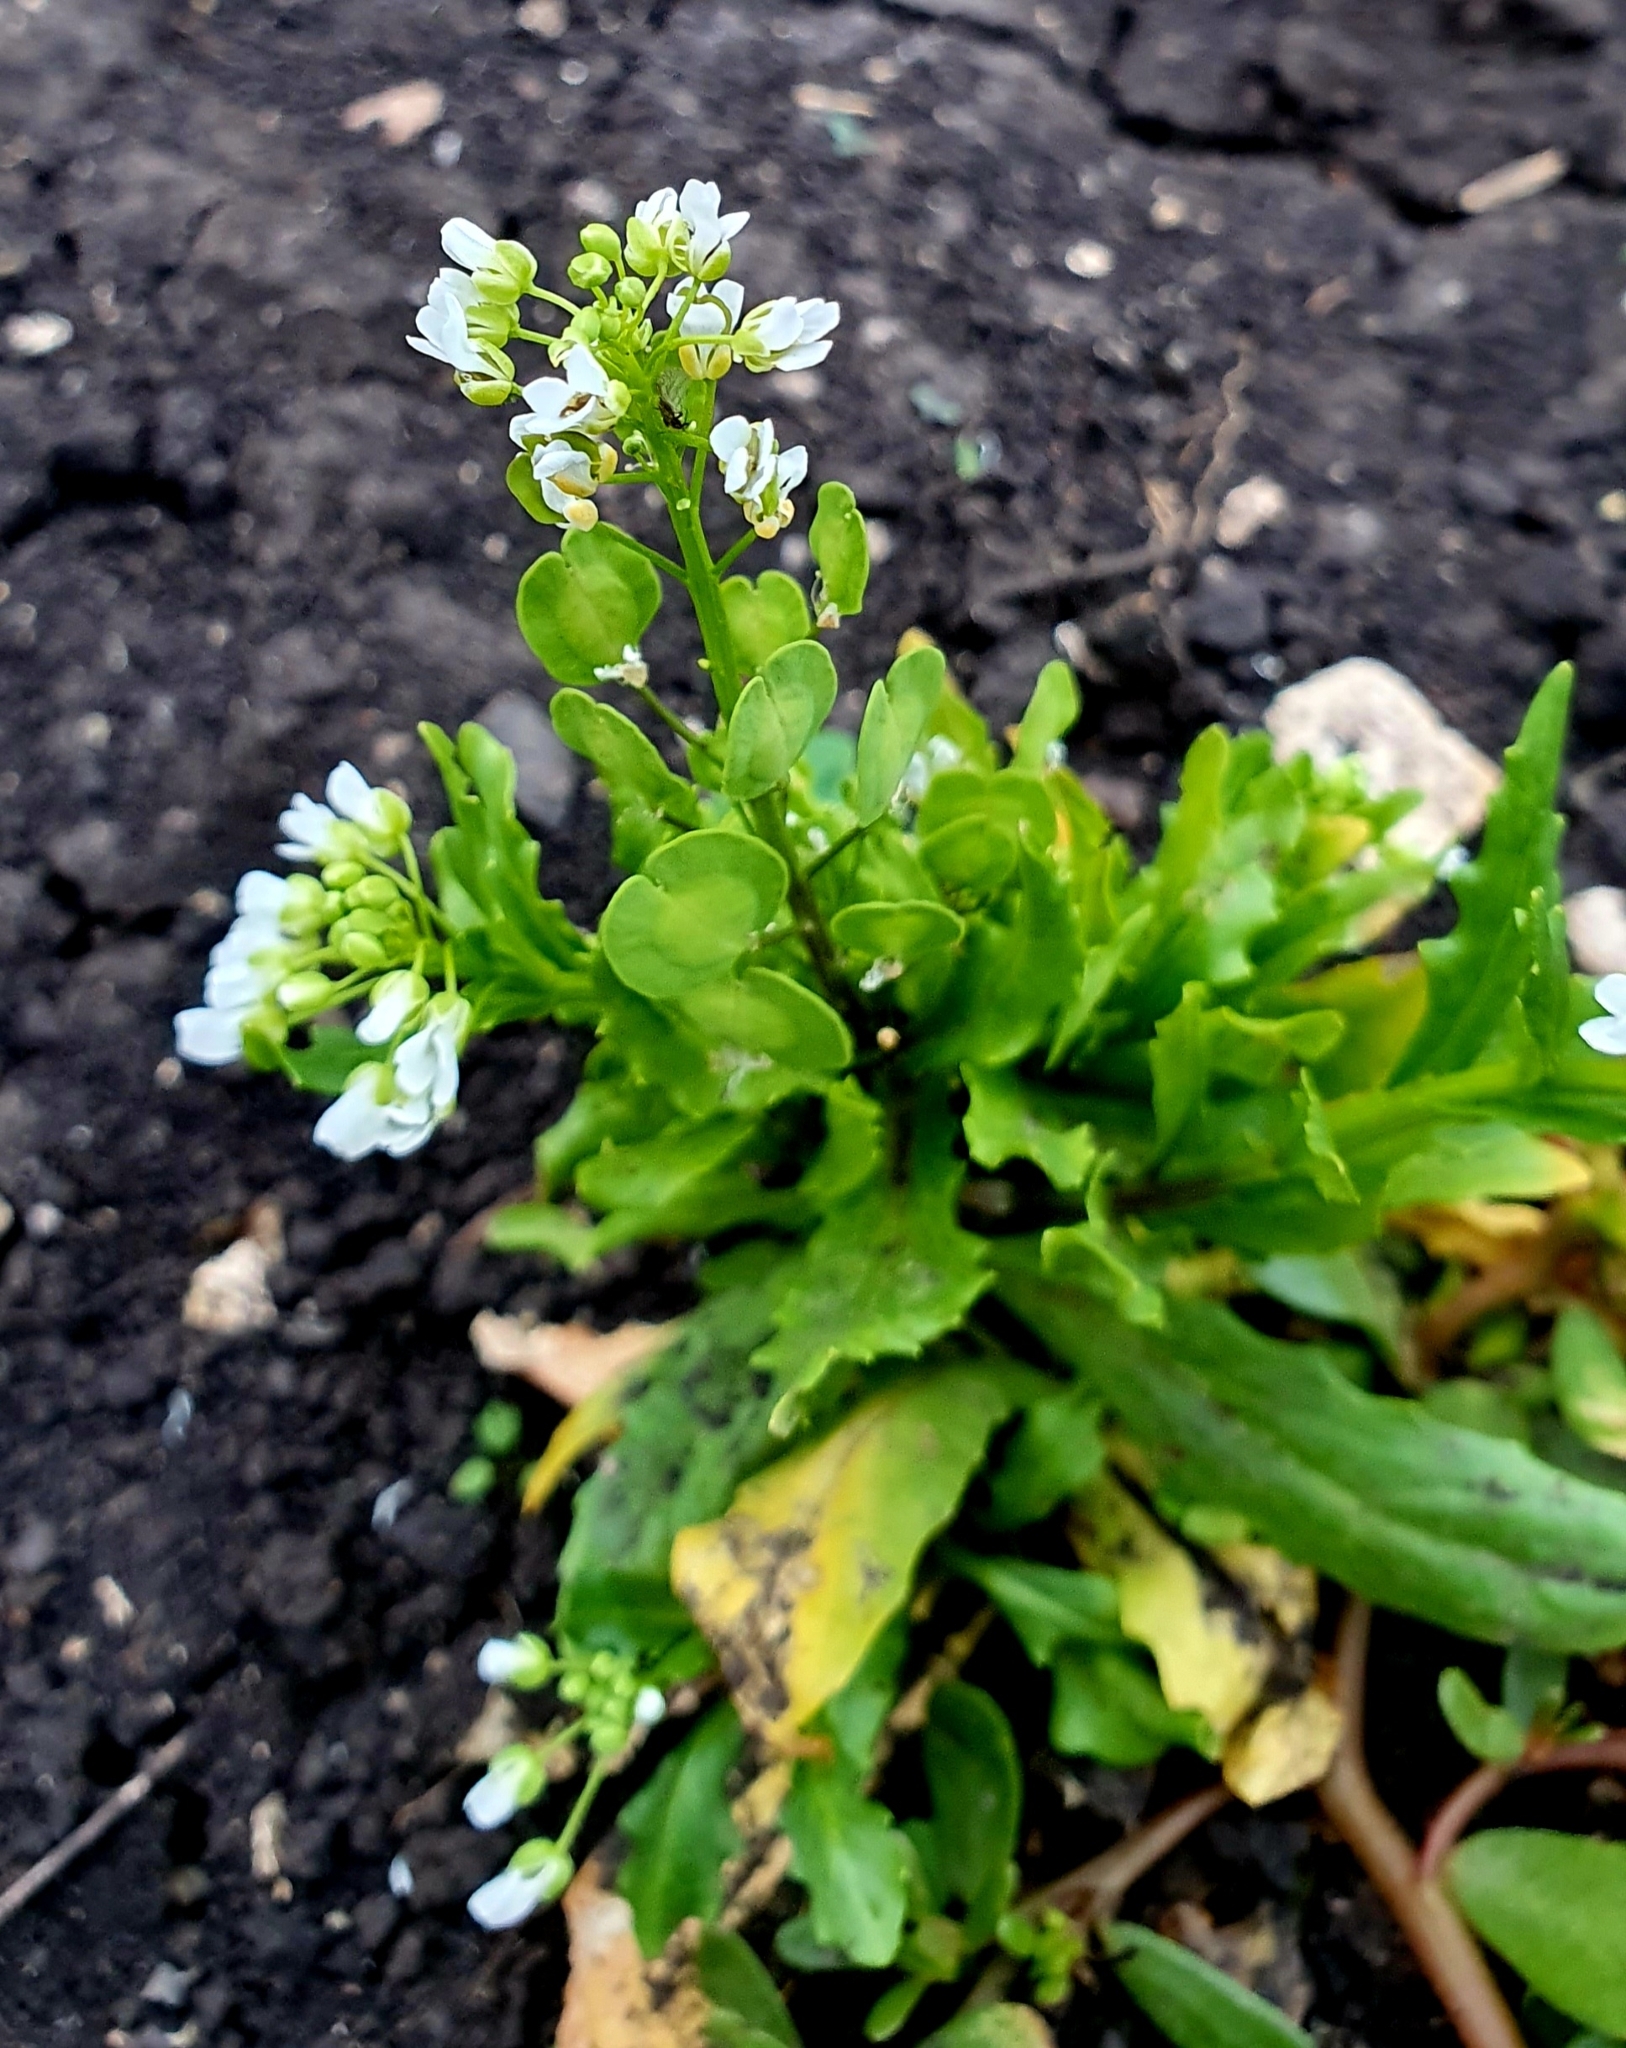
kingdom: Plantae
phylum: Tracheophyta
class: Magnoliopsida
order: Brassicales
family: Brassicaceae
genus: Thlaspi
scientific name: Thlaspi arvense
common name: Field pennycress
